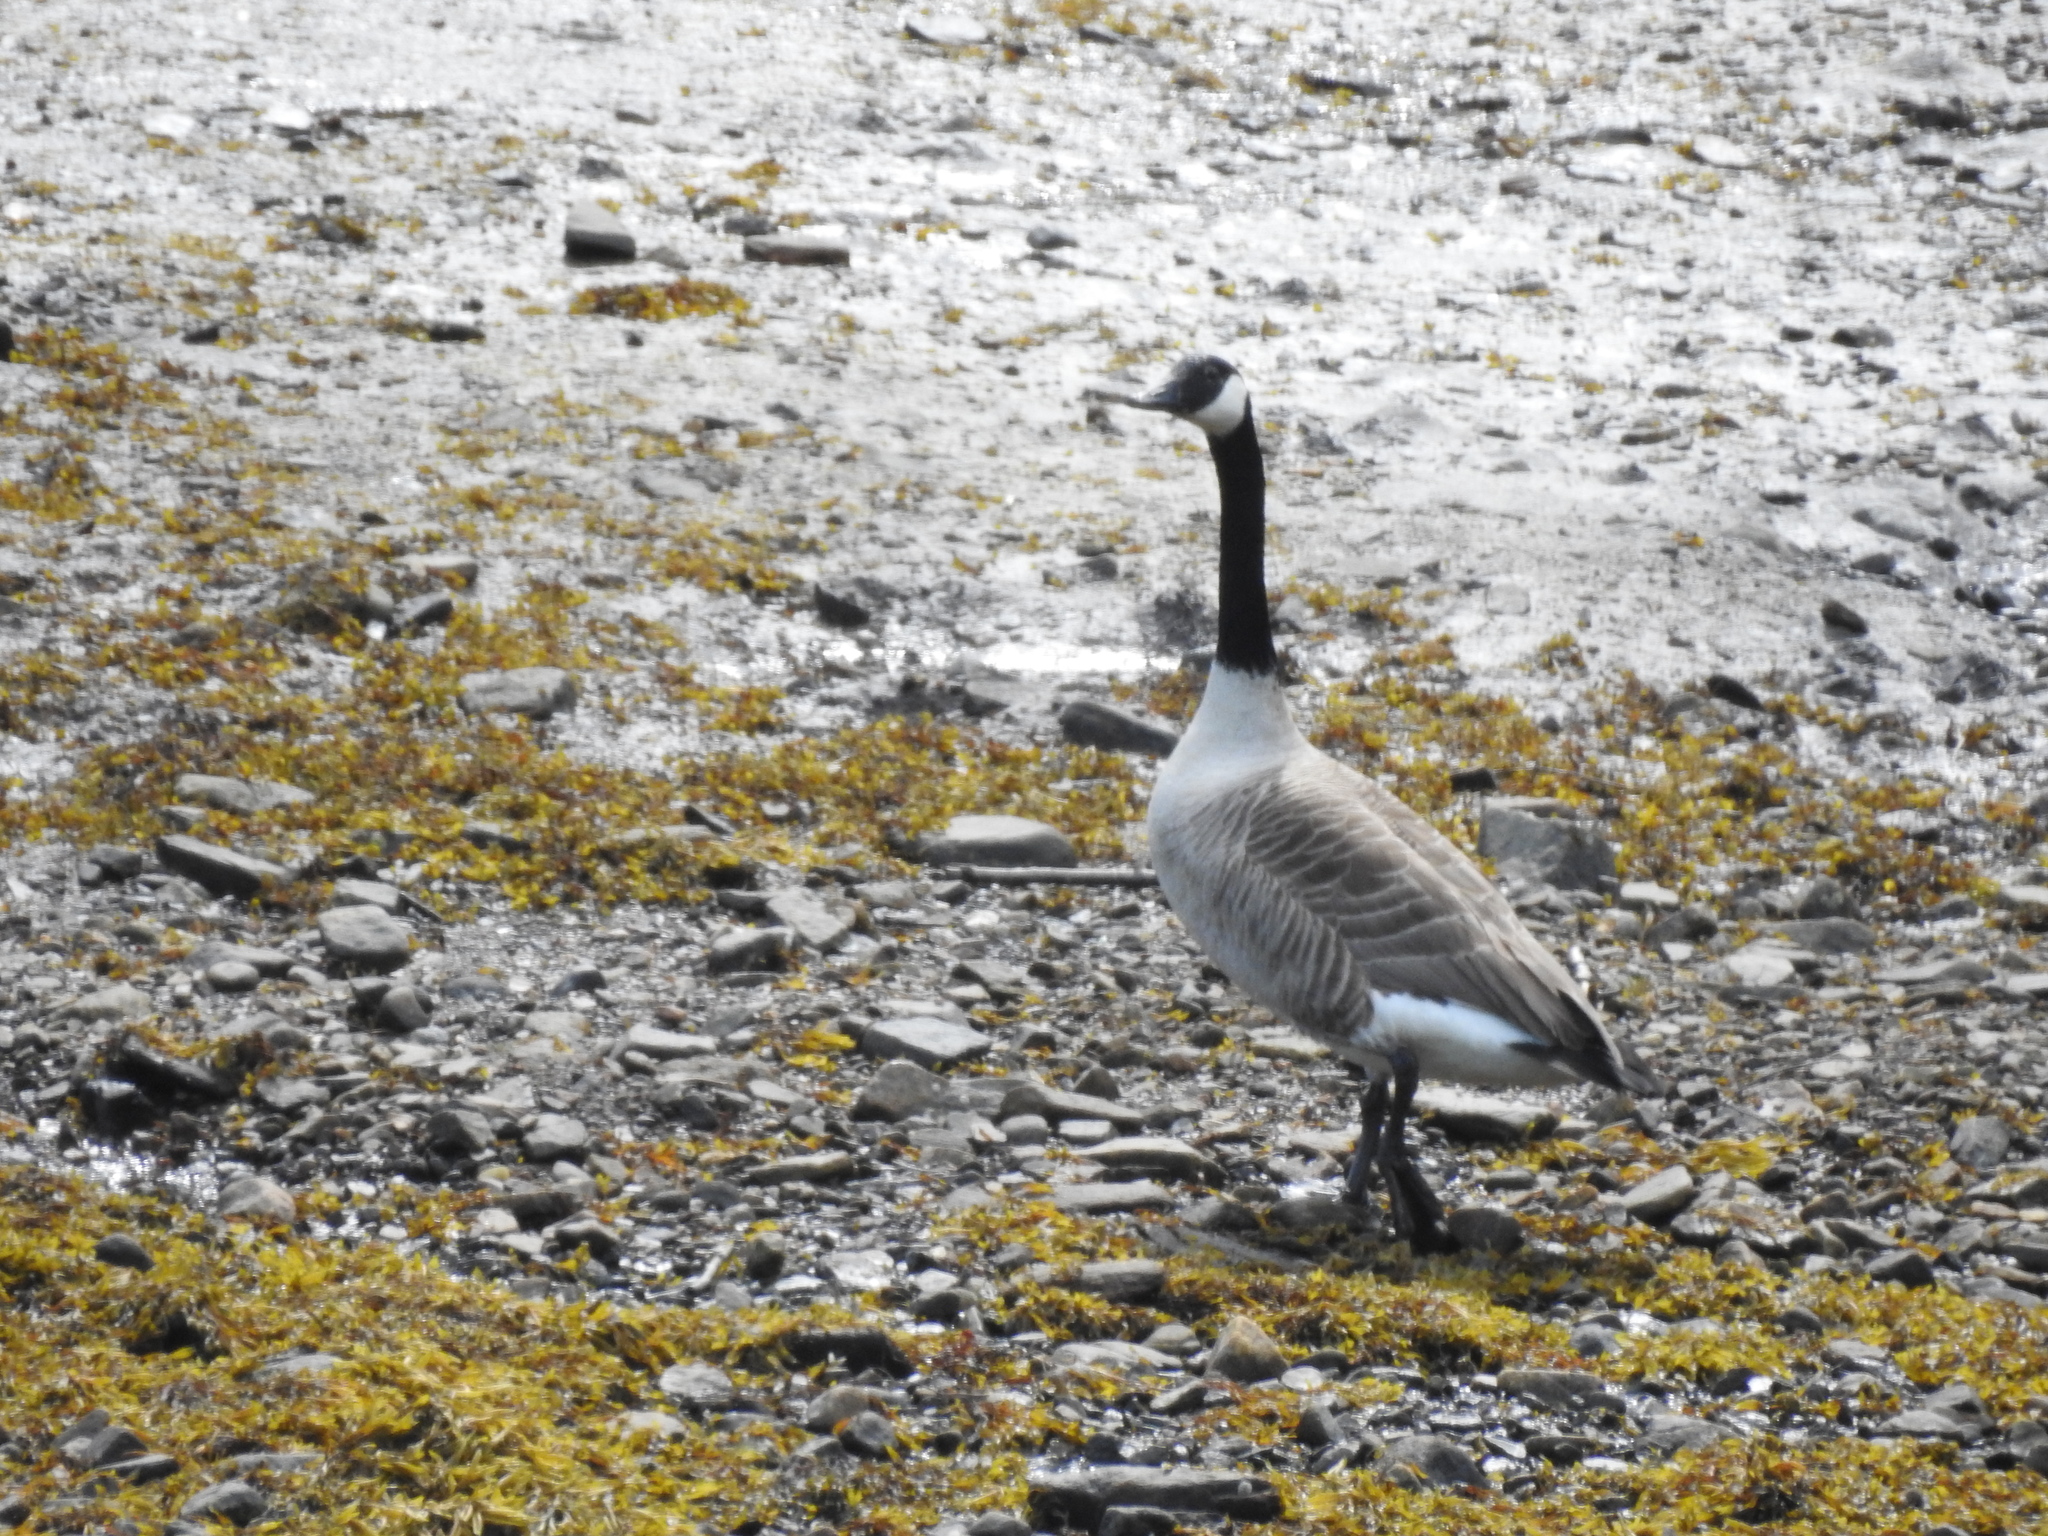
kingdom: Animalia
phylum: Chordata
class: Aves
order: Anseriformes
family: Anatidae
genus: Branta
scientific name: Branta canadensis
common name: Canada goose
